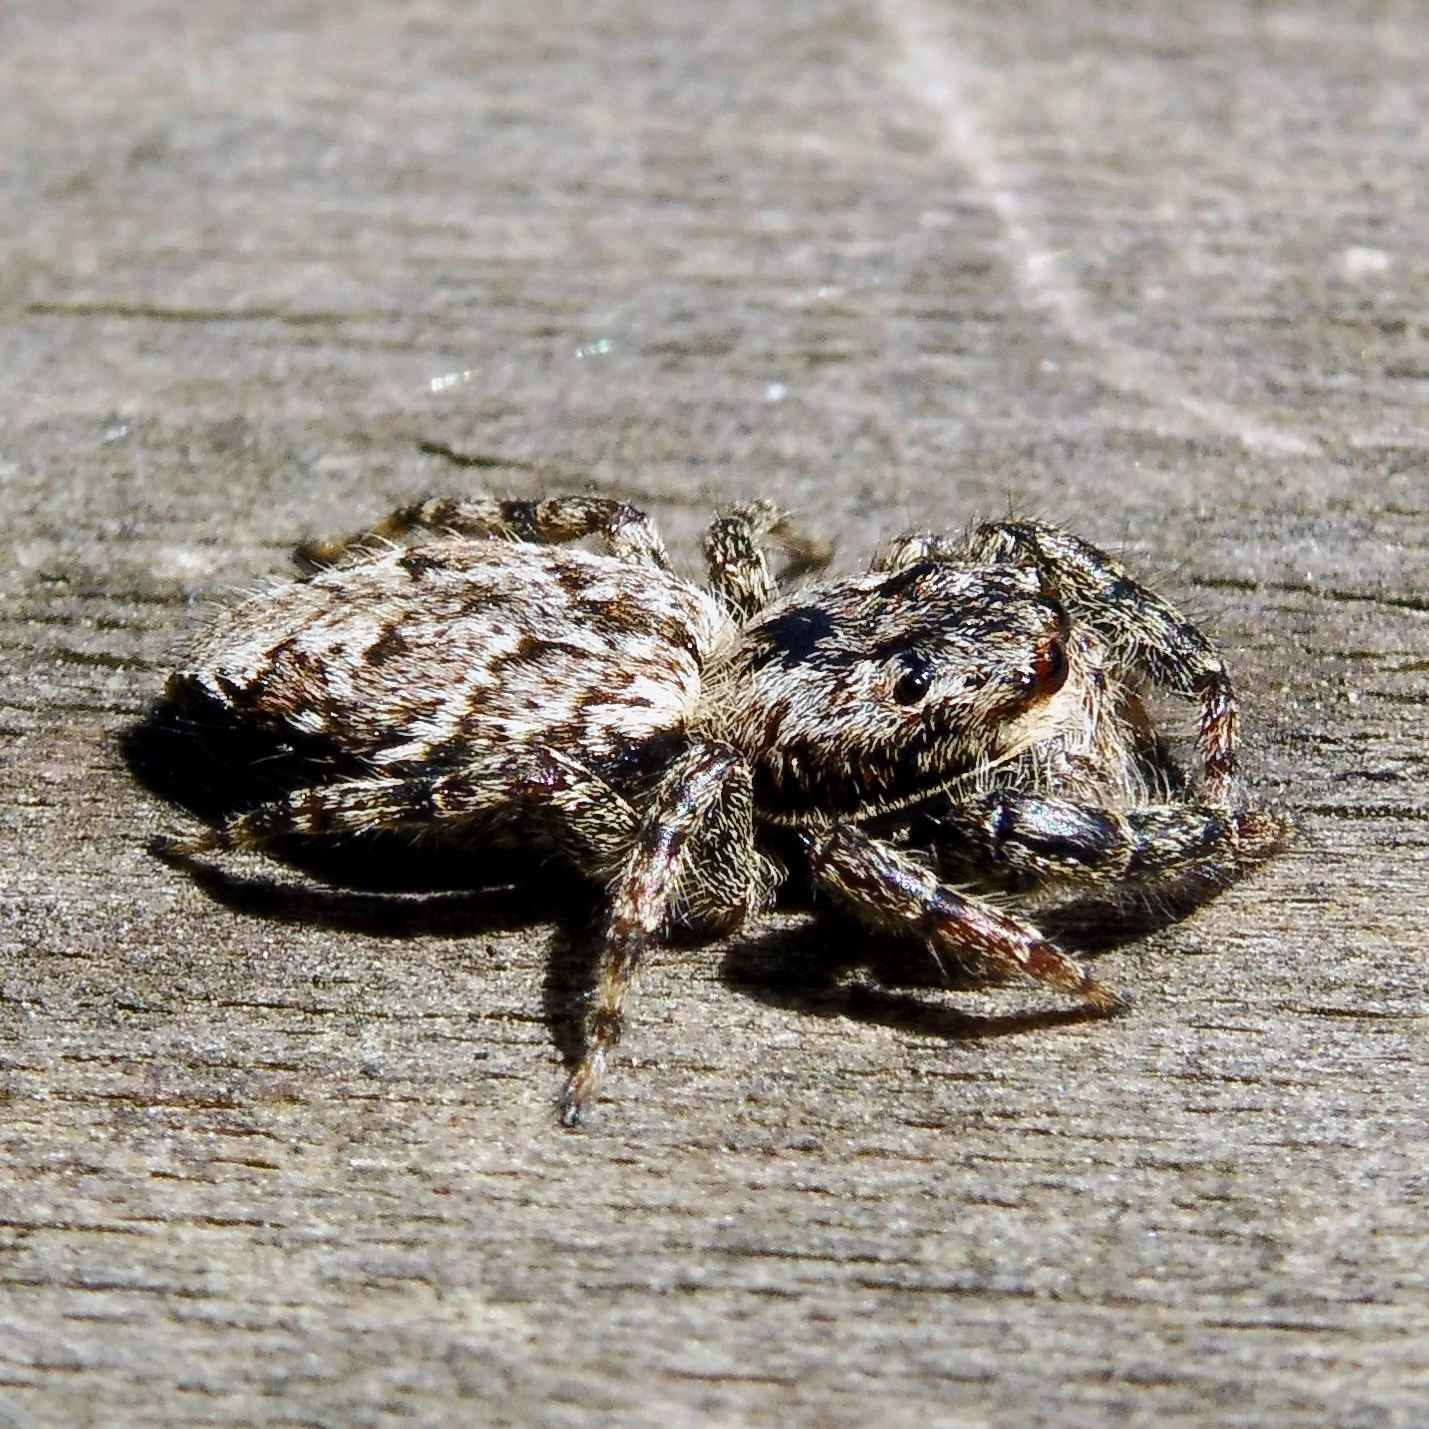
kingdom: Animalia
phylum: Arthropoda
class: Arachnida
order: Araneae
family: Salticidae
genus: Marpissa
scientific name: Marpissa muscosa
